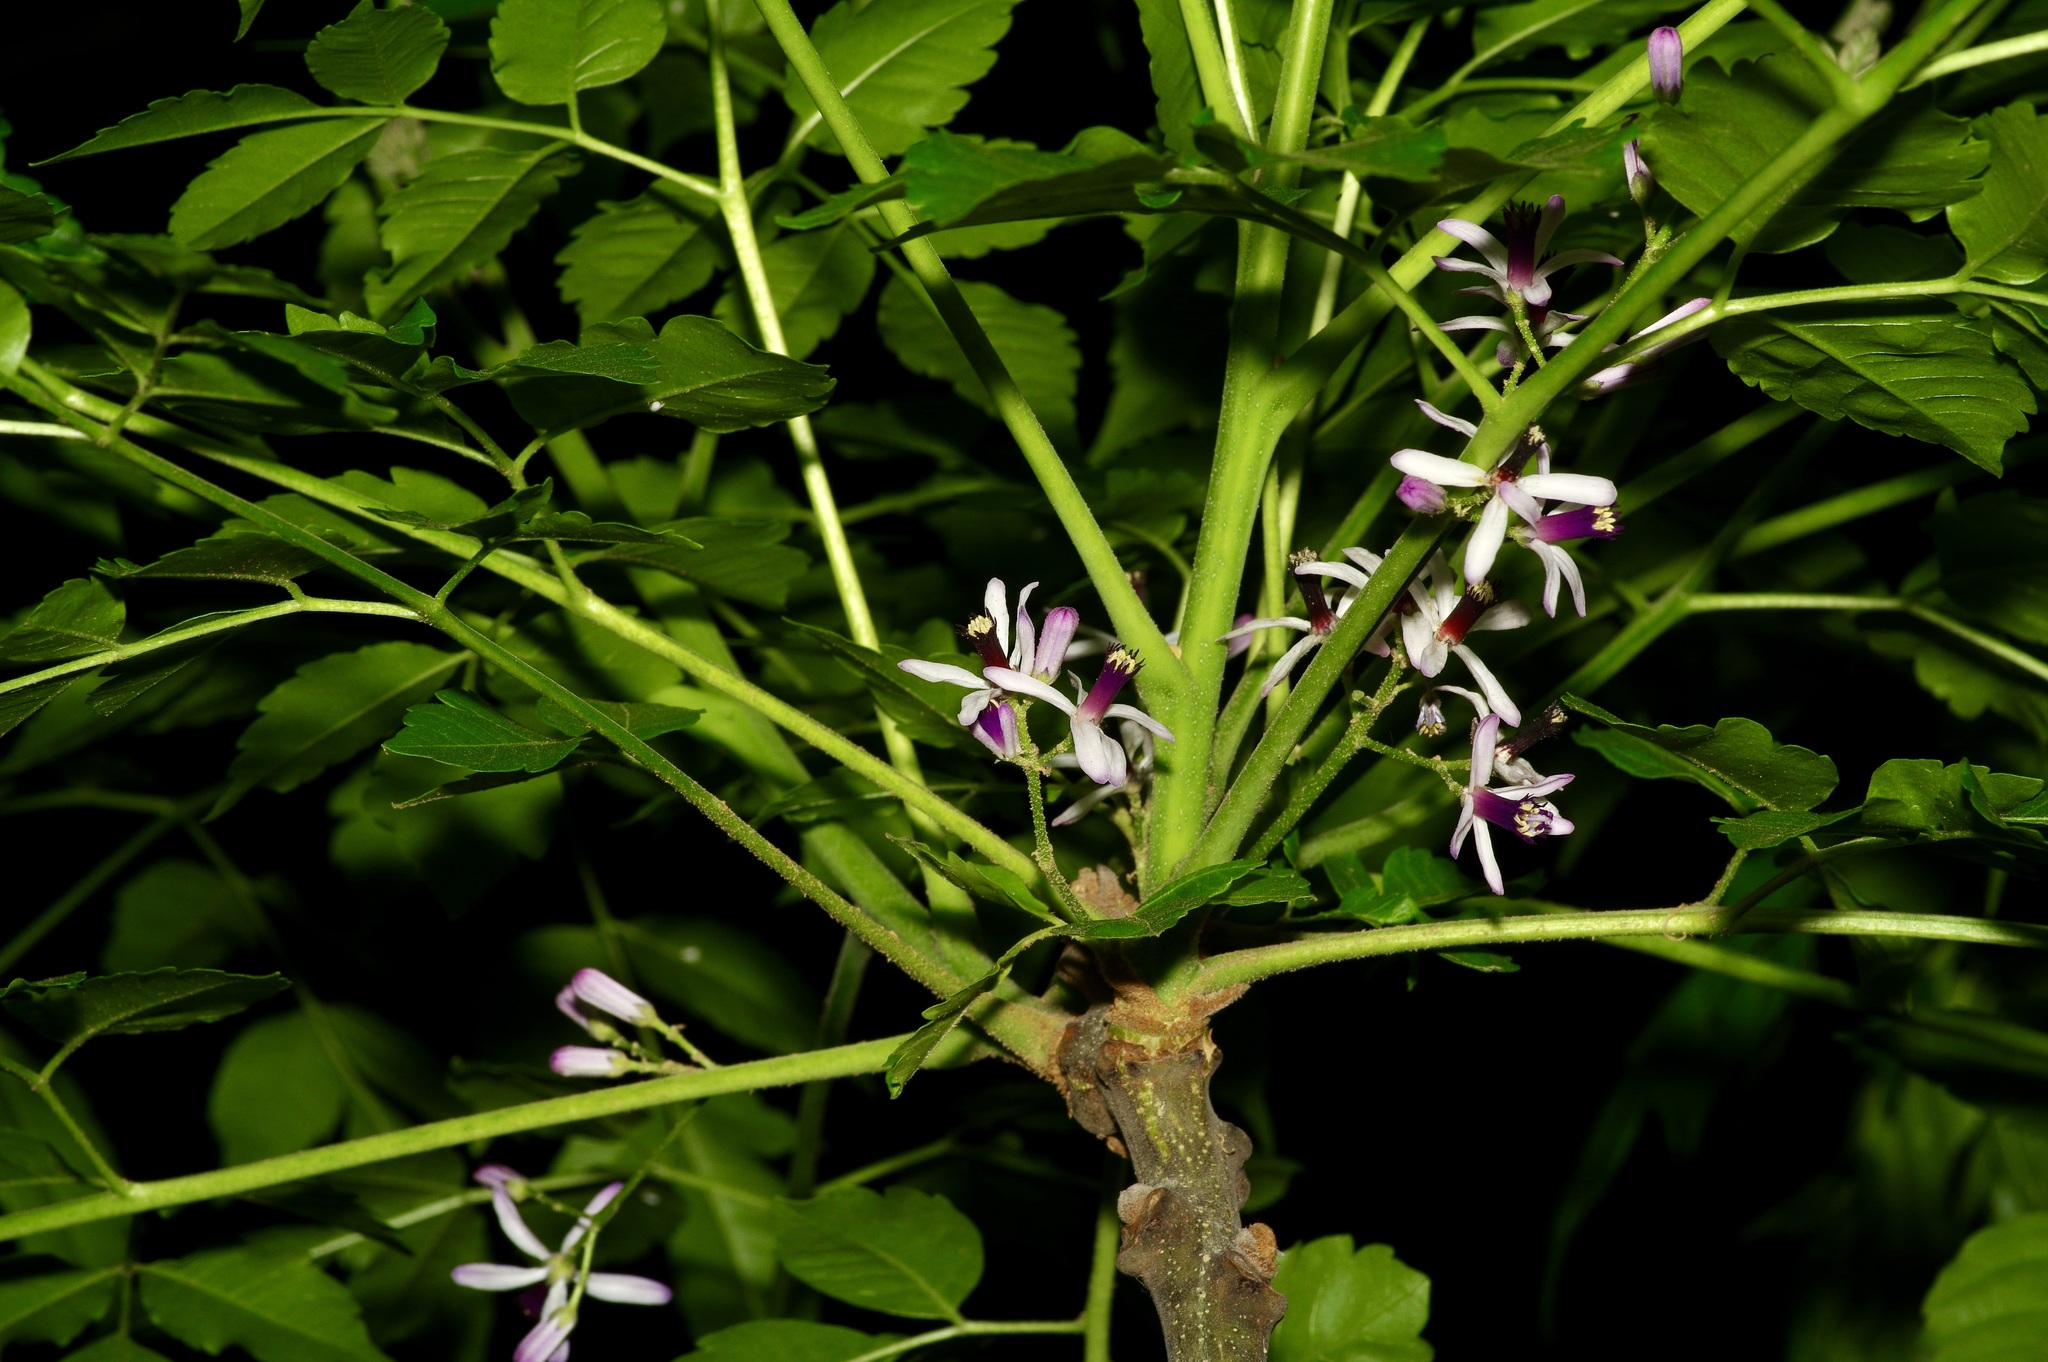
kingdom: Plantae
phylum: Tracheophyta
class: Magnoliopsida
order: Sapindales
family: Meliaceae
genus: Melia
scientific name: Melia azedarach
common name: Chinaberrytree
